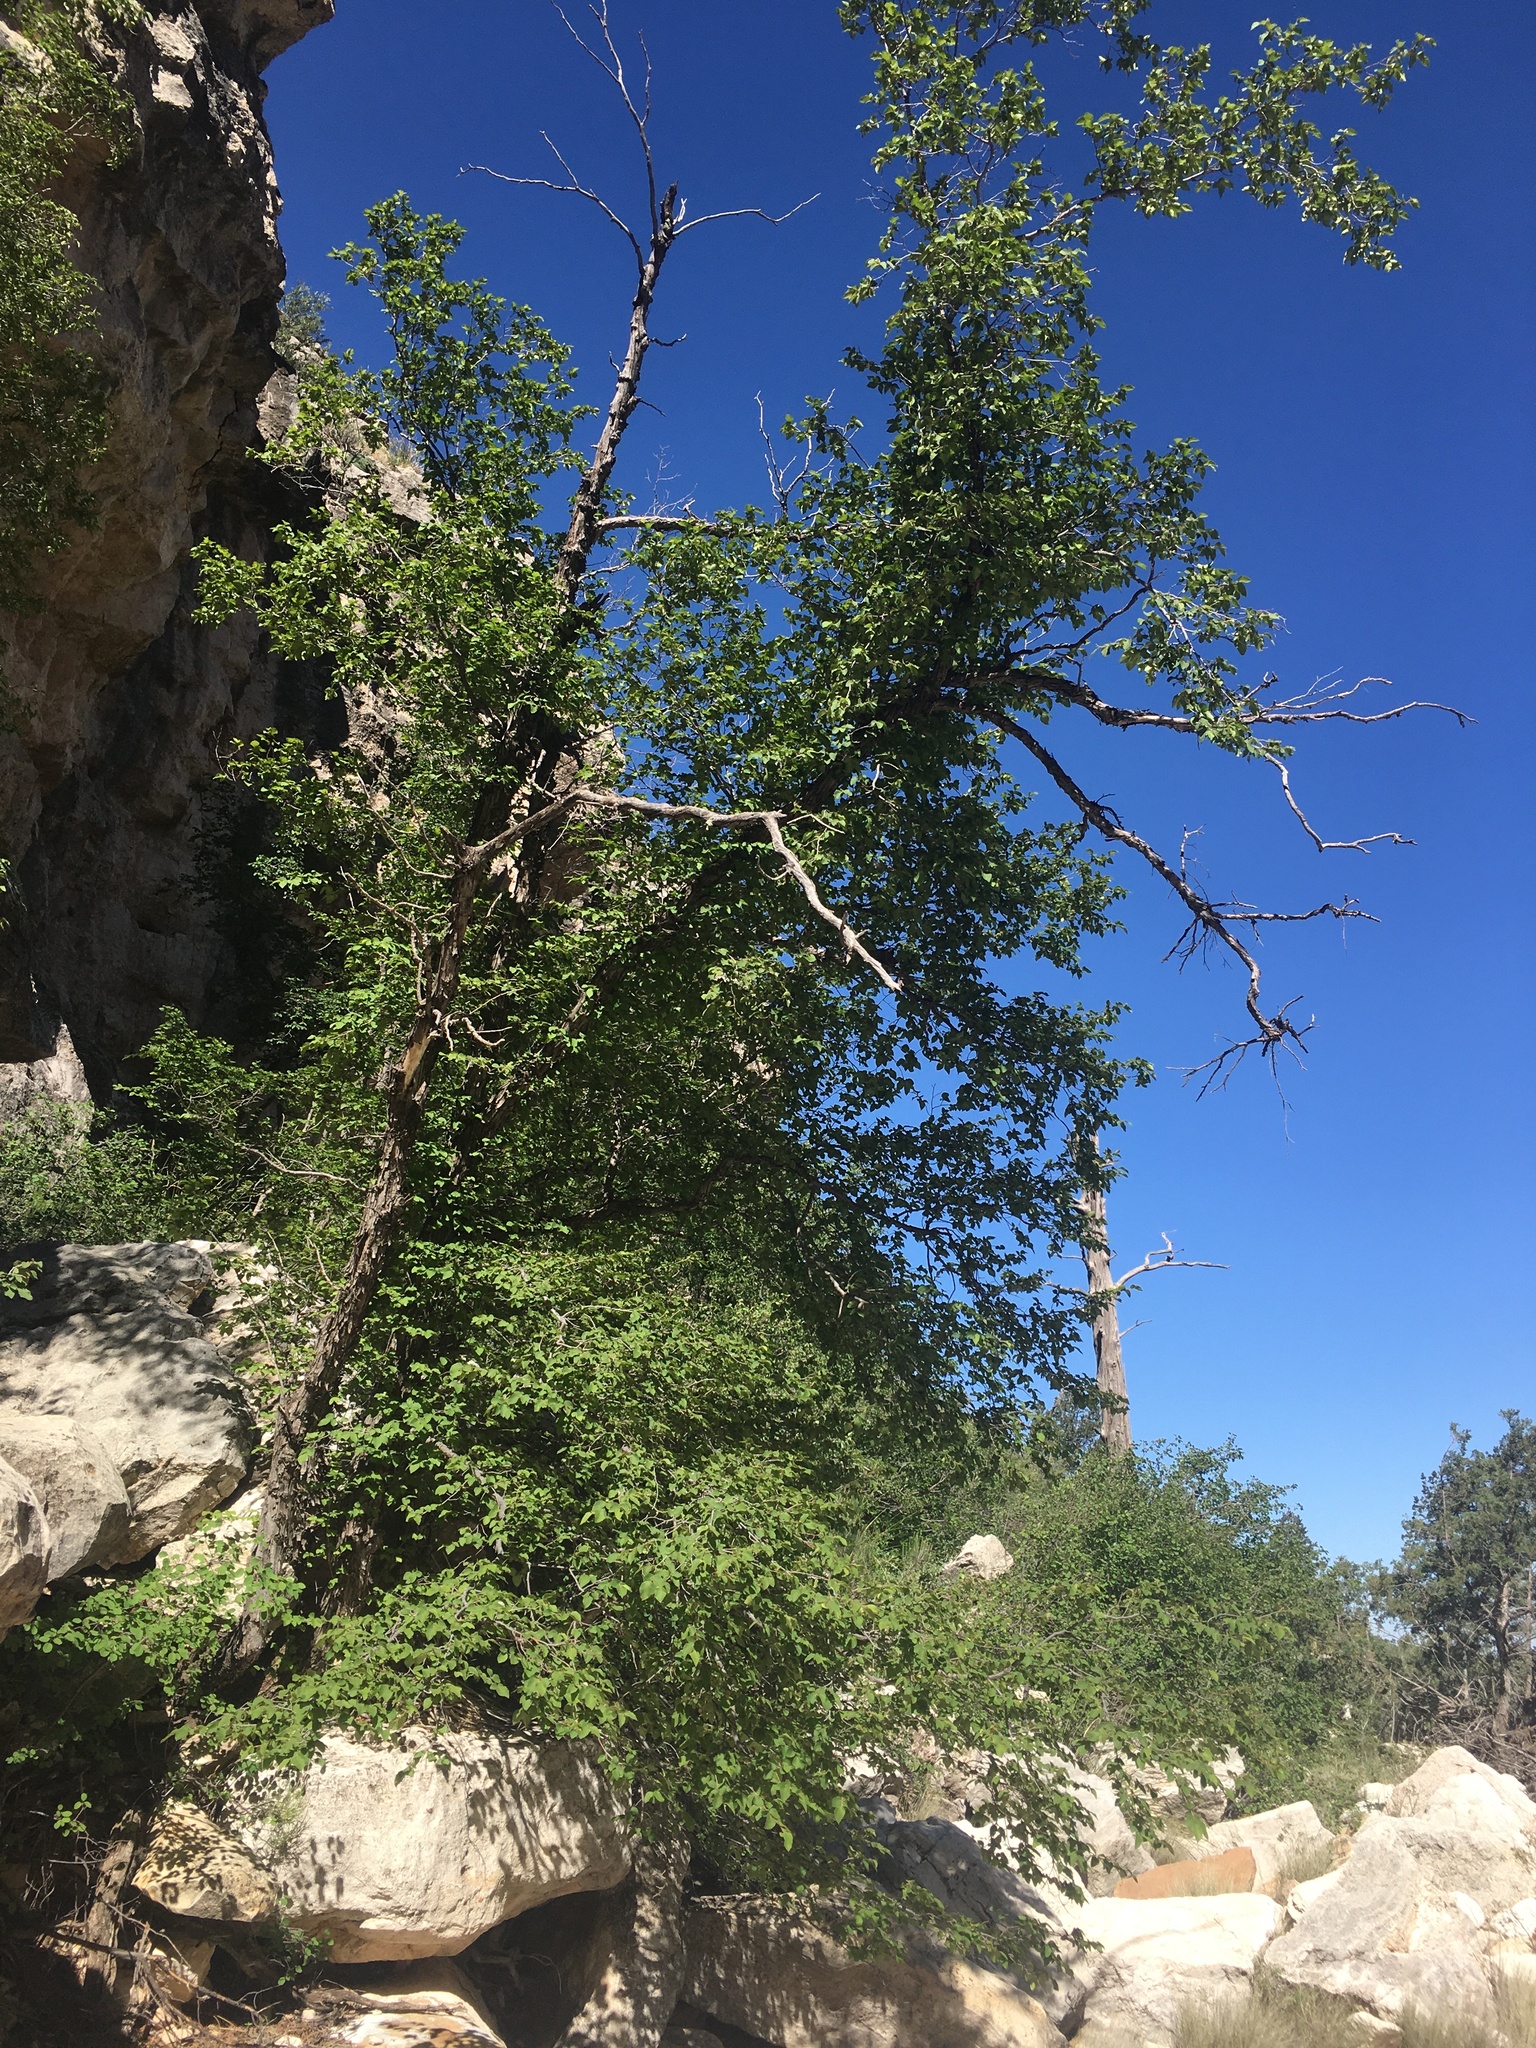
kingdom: Plantae
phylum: Tracheophyta
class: Magnoliopsida
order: Fagales
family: Betulaceae
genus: Ostrya
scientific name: Ostrya knowltonii
